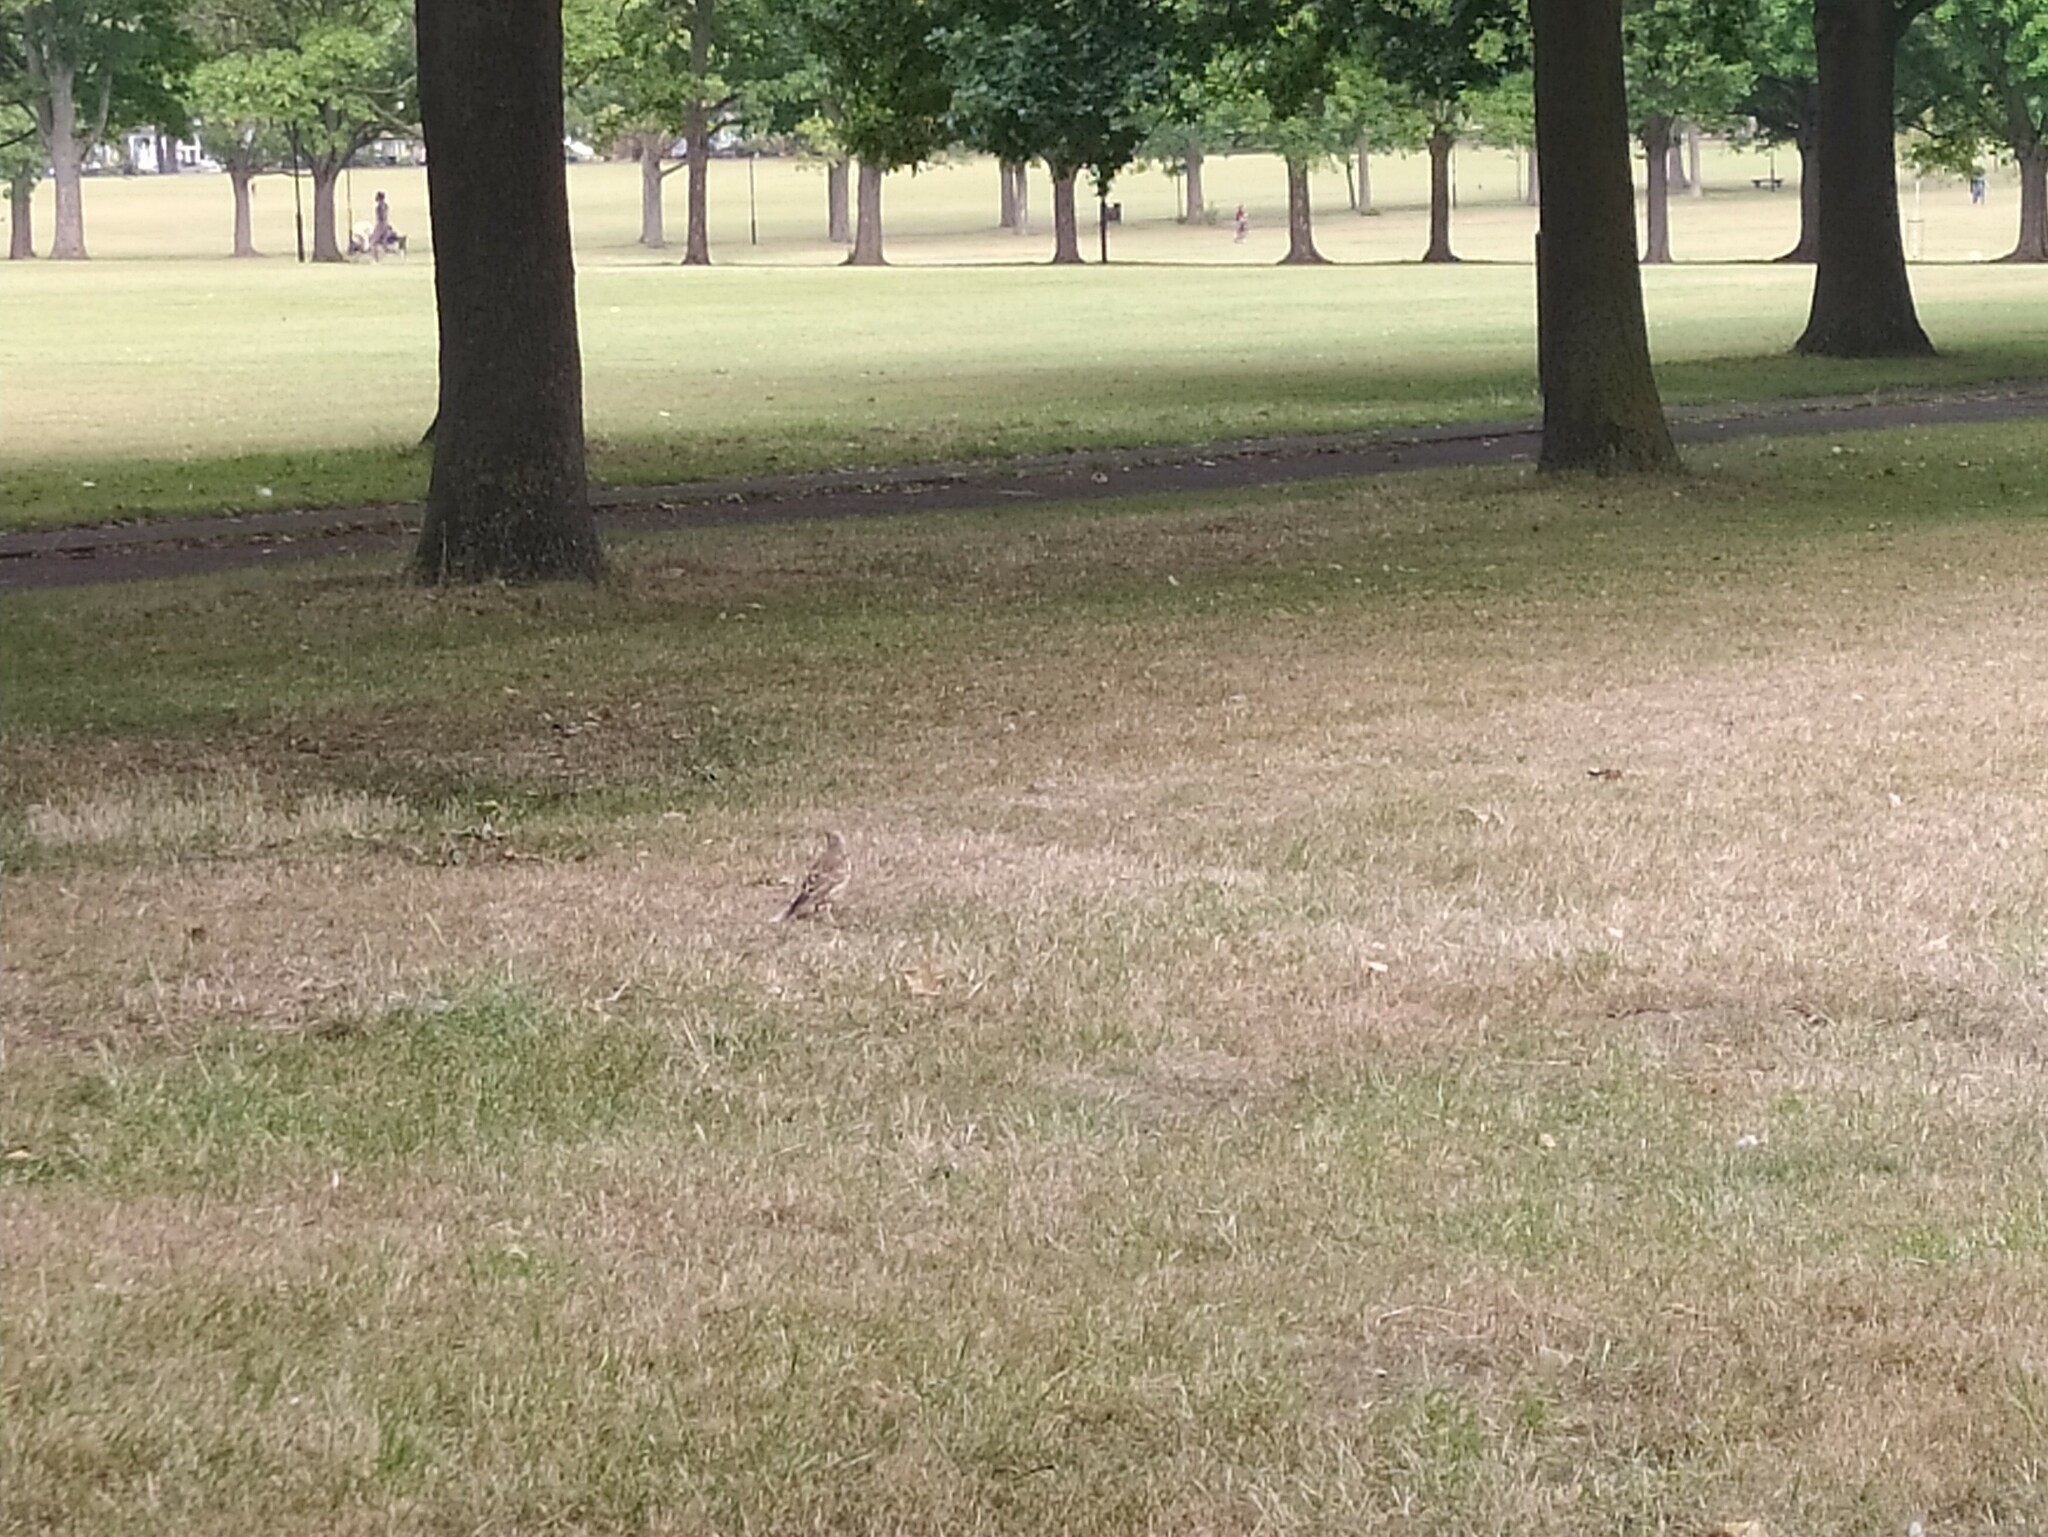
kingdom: Animalia
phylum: Chordata
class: Aves
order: Passeriformes
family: Turdidae
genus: Turdus
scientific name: Turdus viscivorus
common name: Mistle thrush
